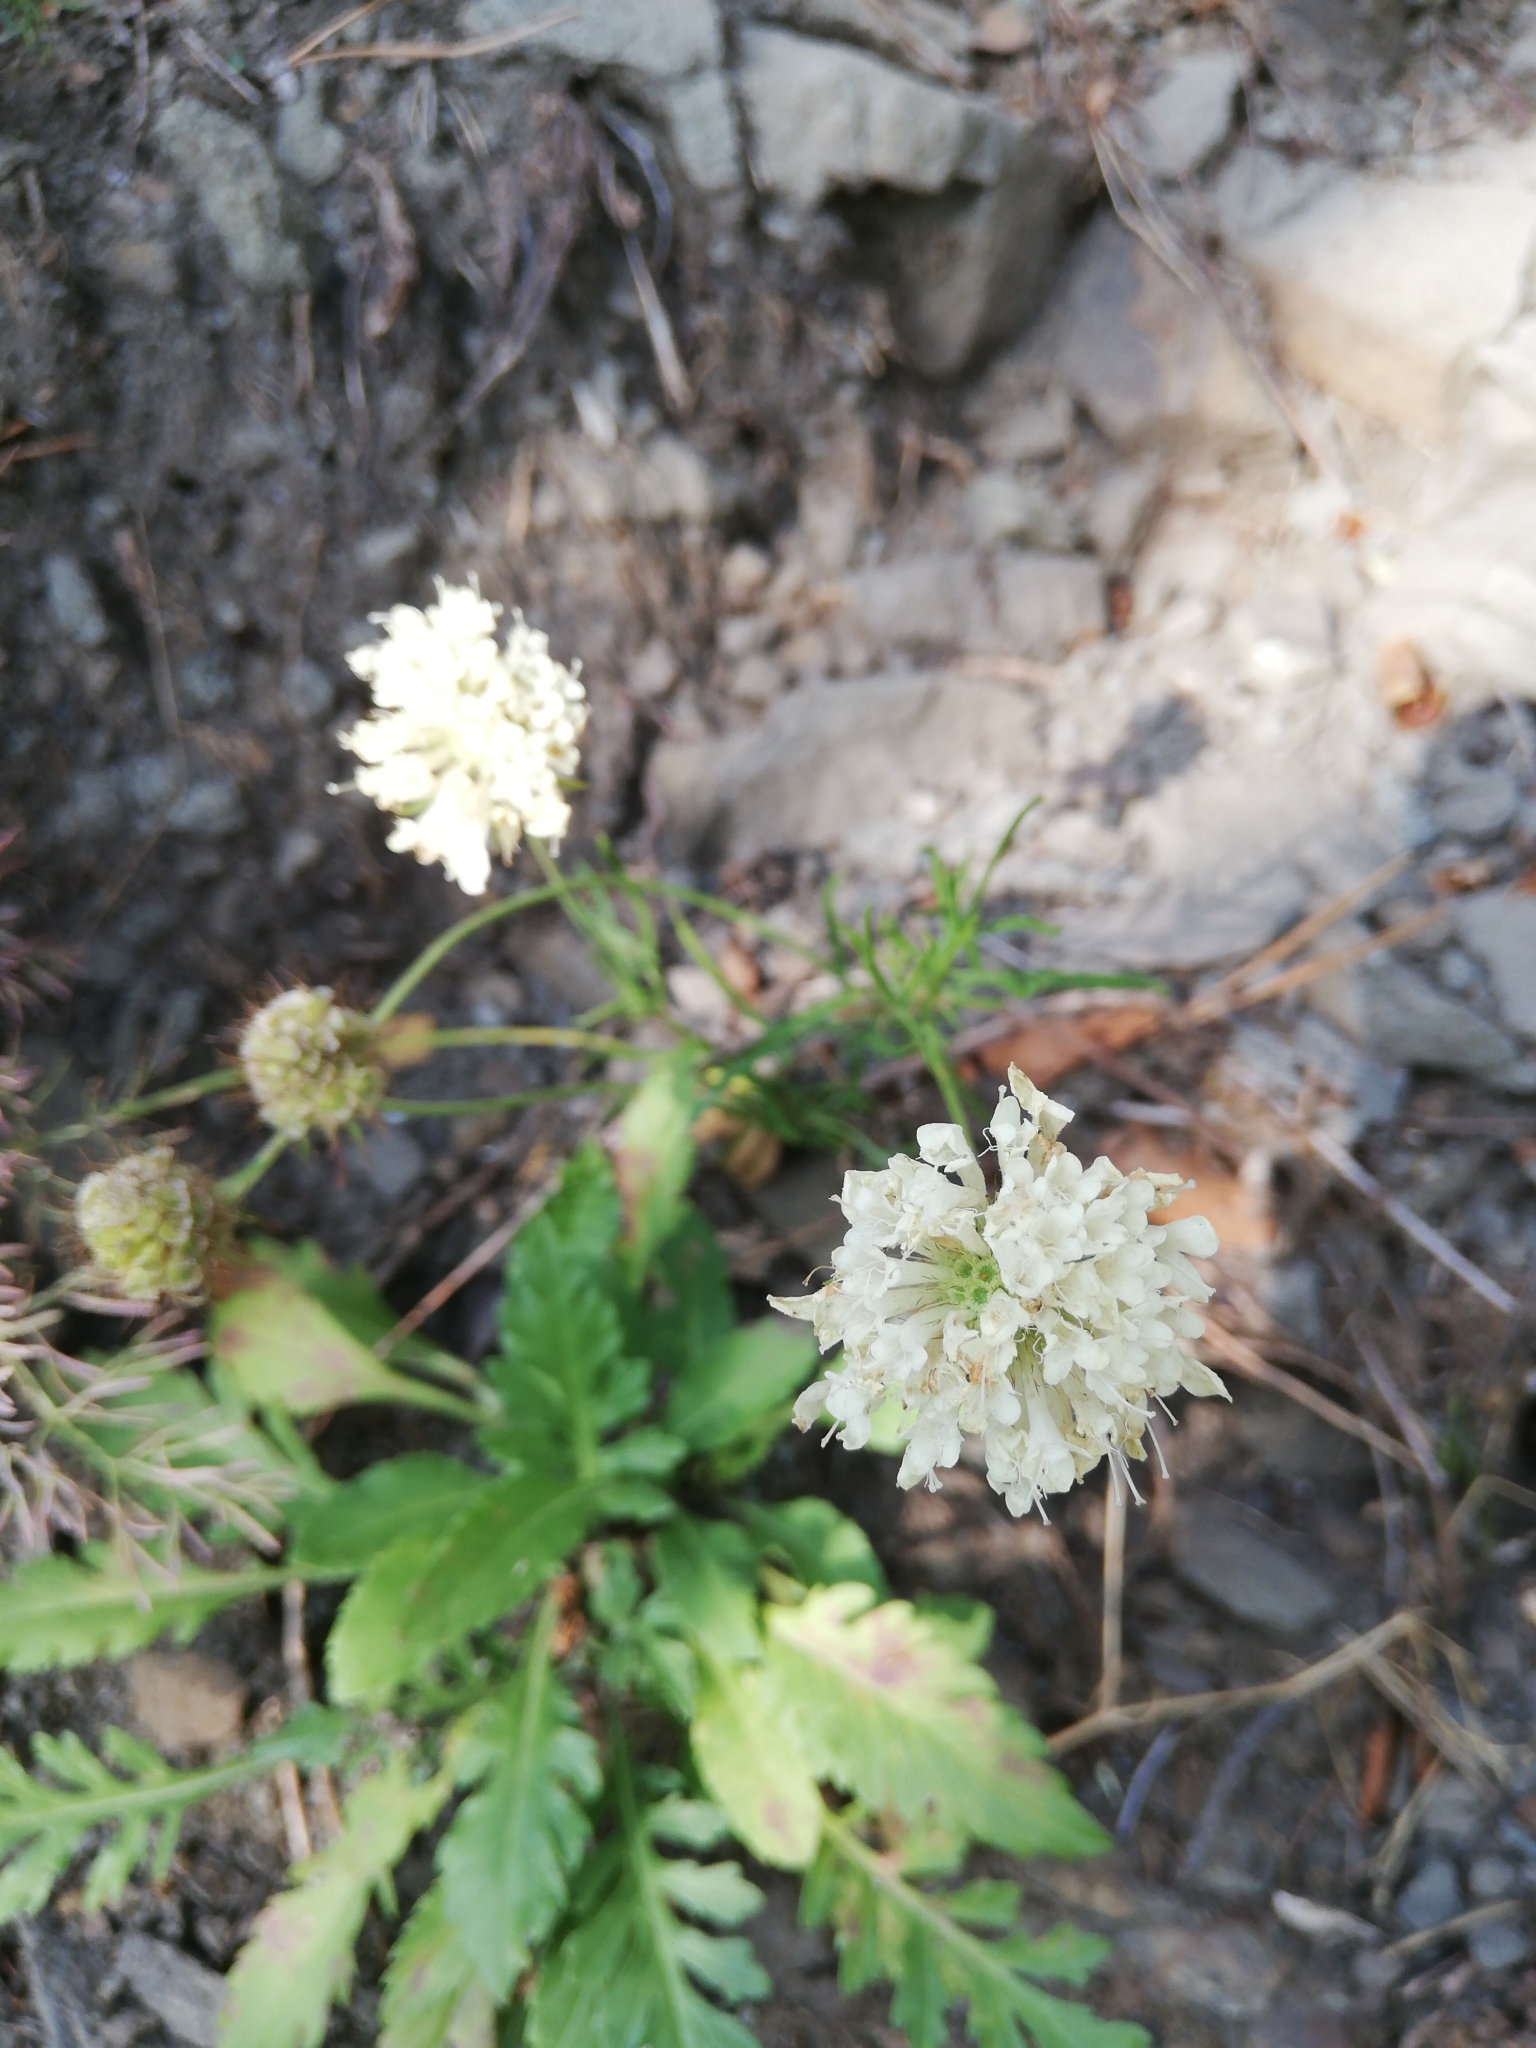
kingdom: Plantae
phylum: Tracheophyta
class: Magnoliopsida
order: Dipsacales
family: Caprifoliaceae
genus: Scabiosa
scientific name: Scabiosa ochroleuca
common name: Cream pincushions
